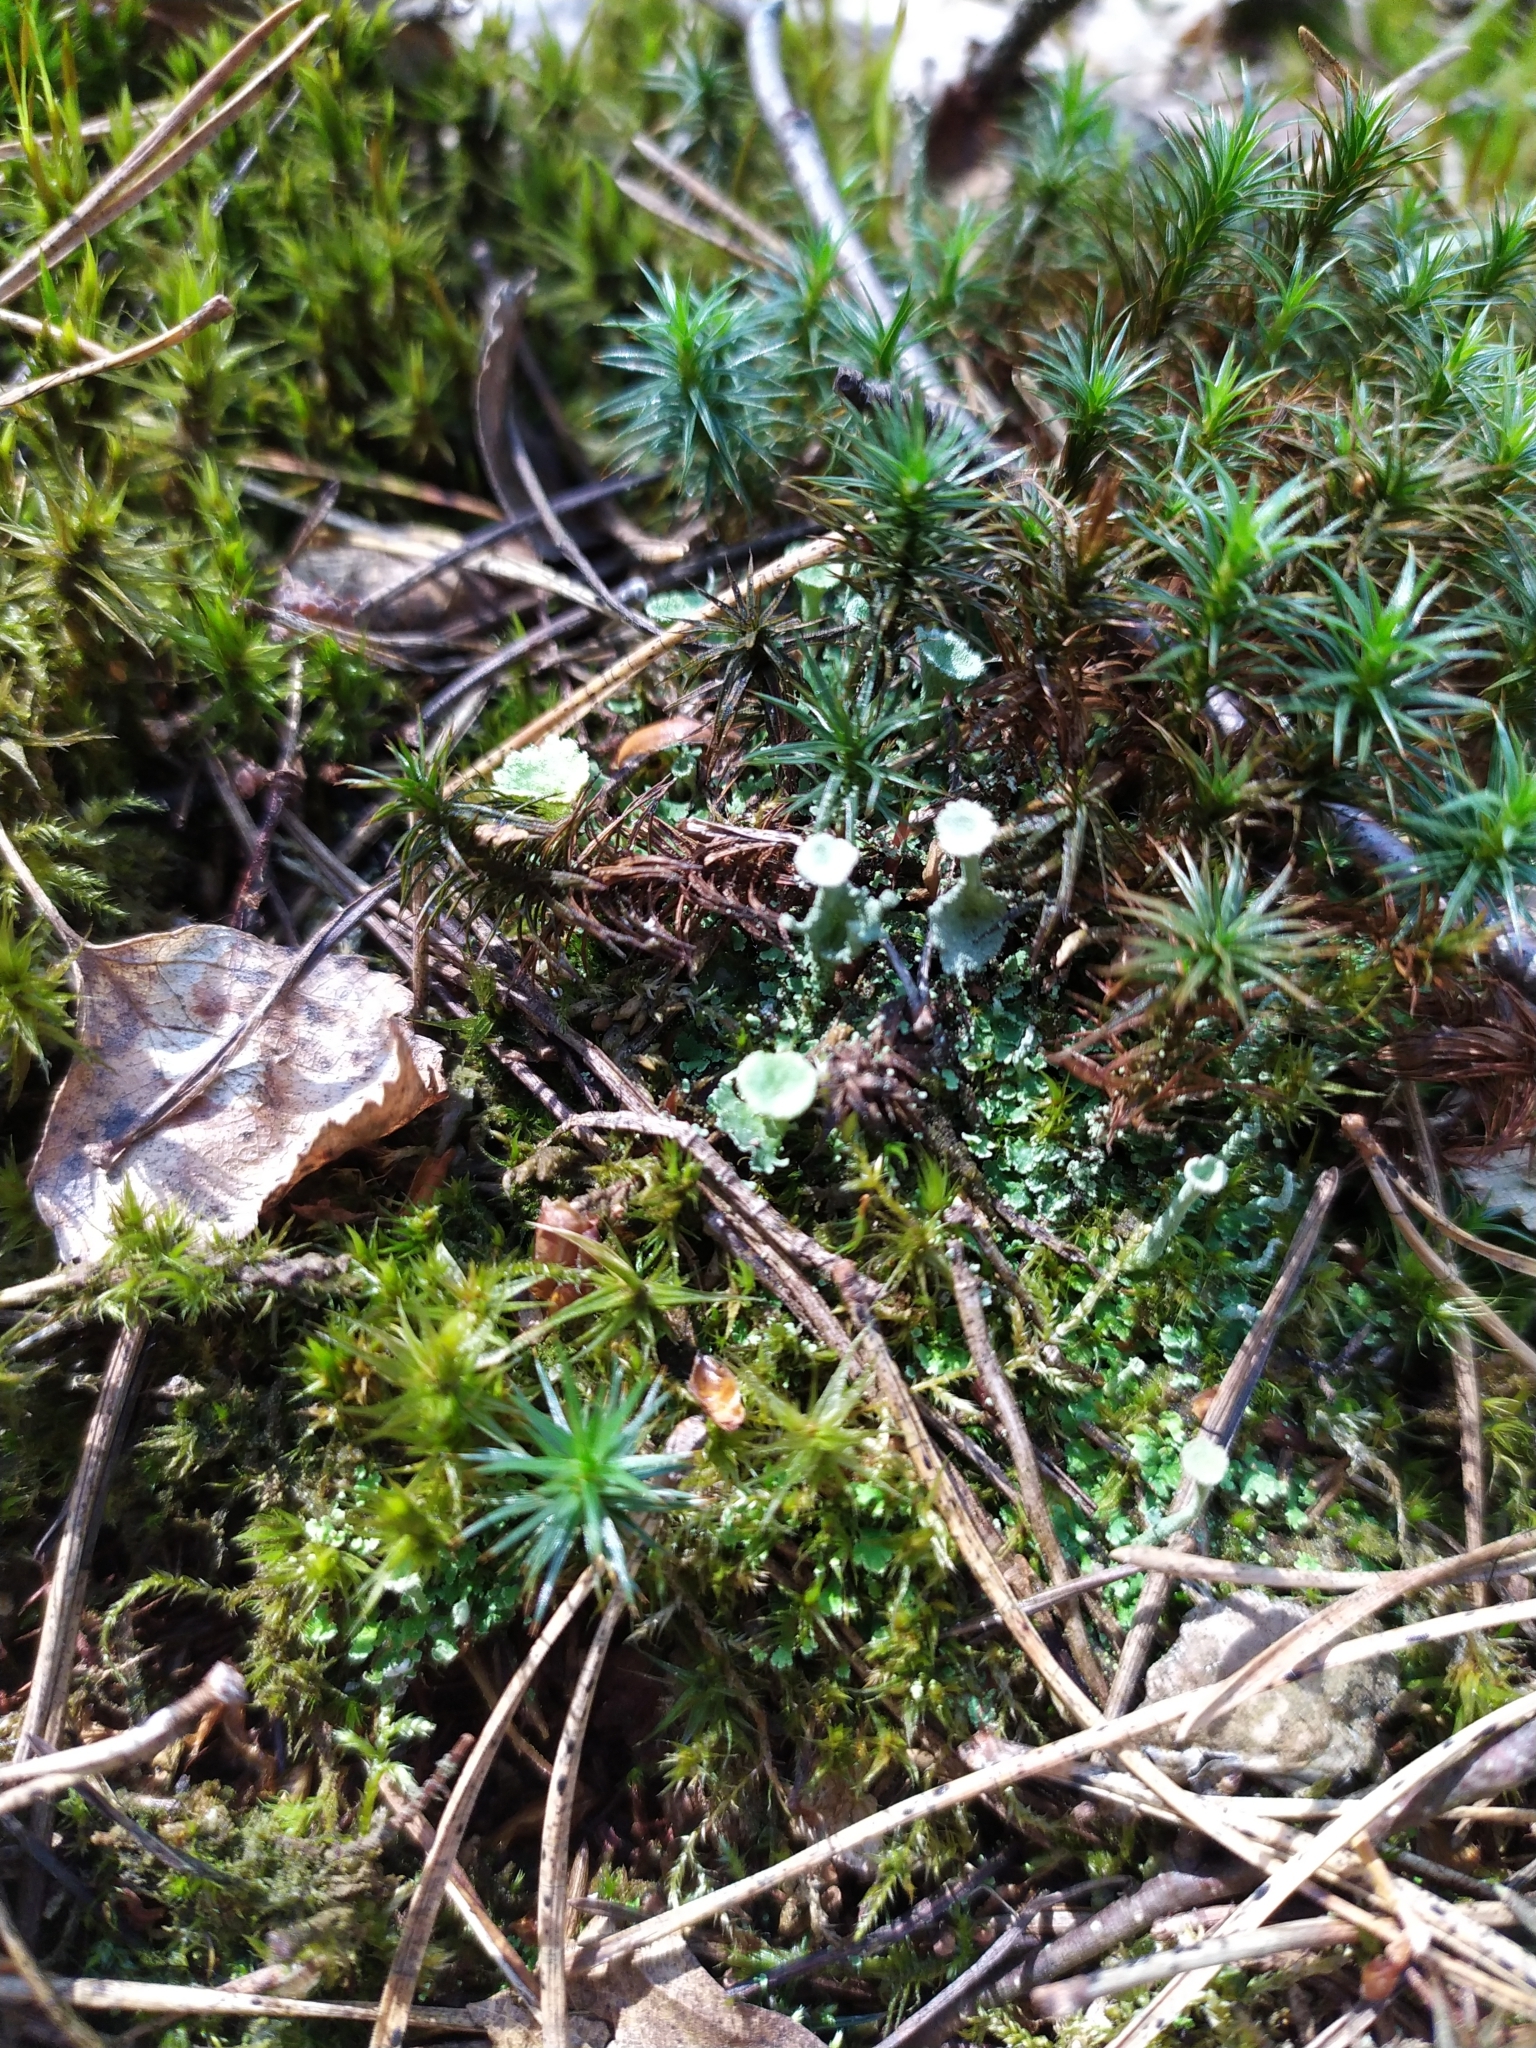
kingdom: Fungi
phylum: Ascomycota
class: Lecanoromycetes
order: Lecanorales
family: Cladoniaceae
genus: Cladonia
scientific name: Cladonia
